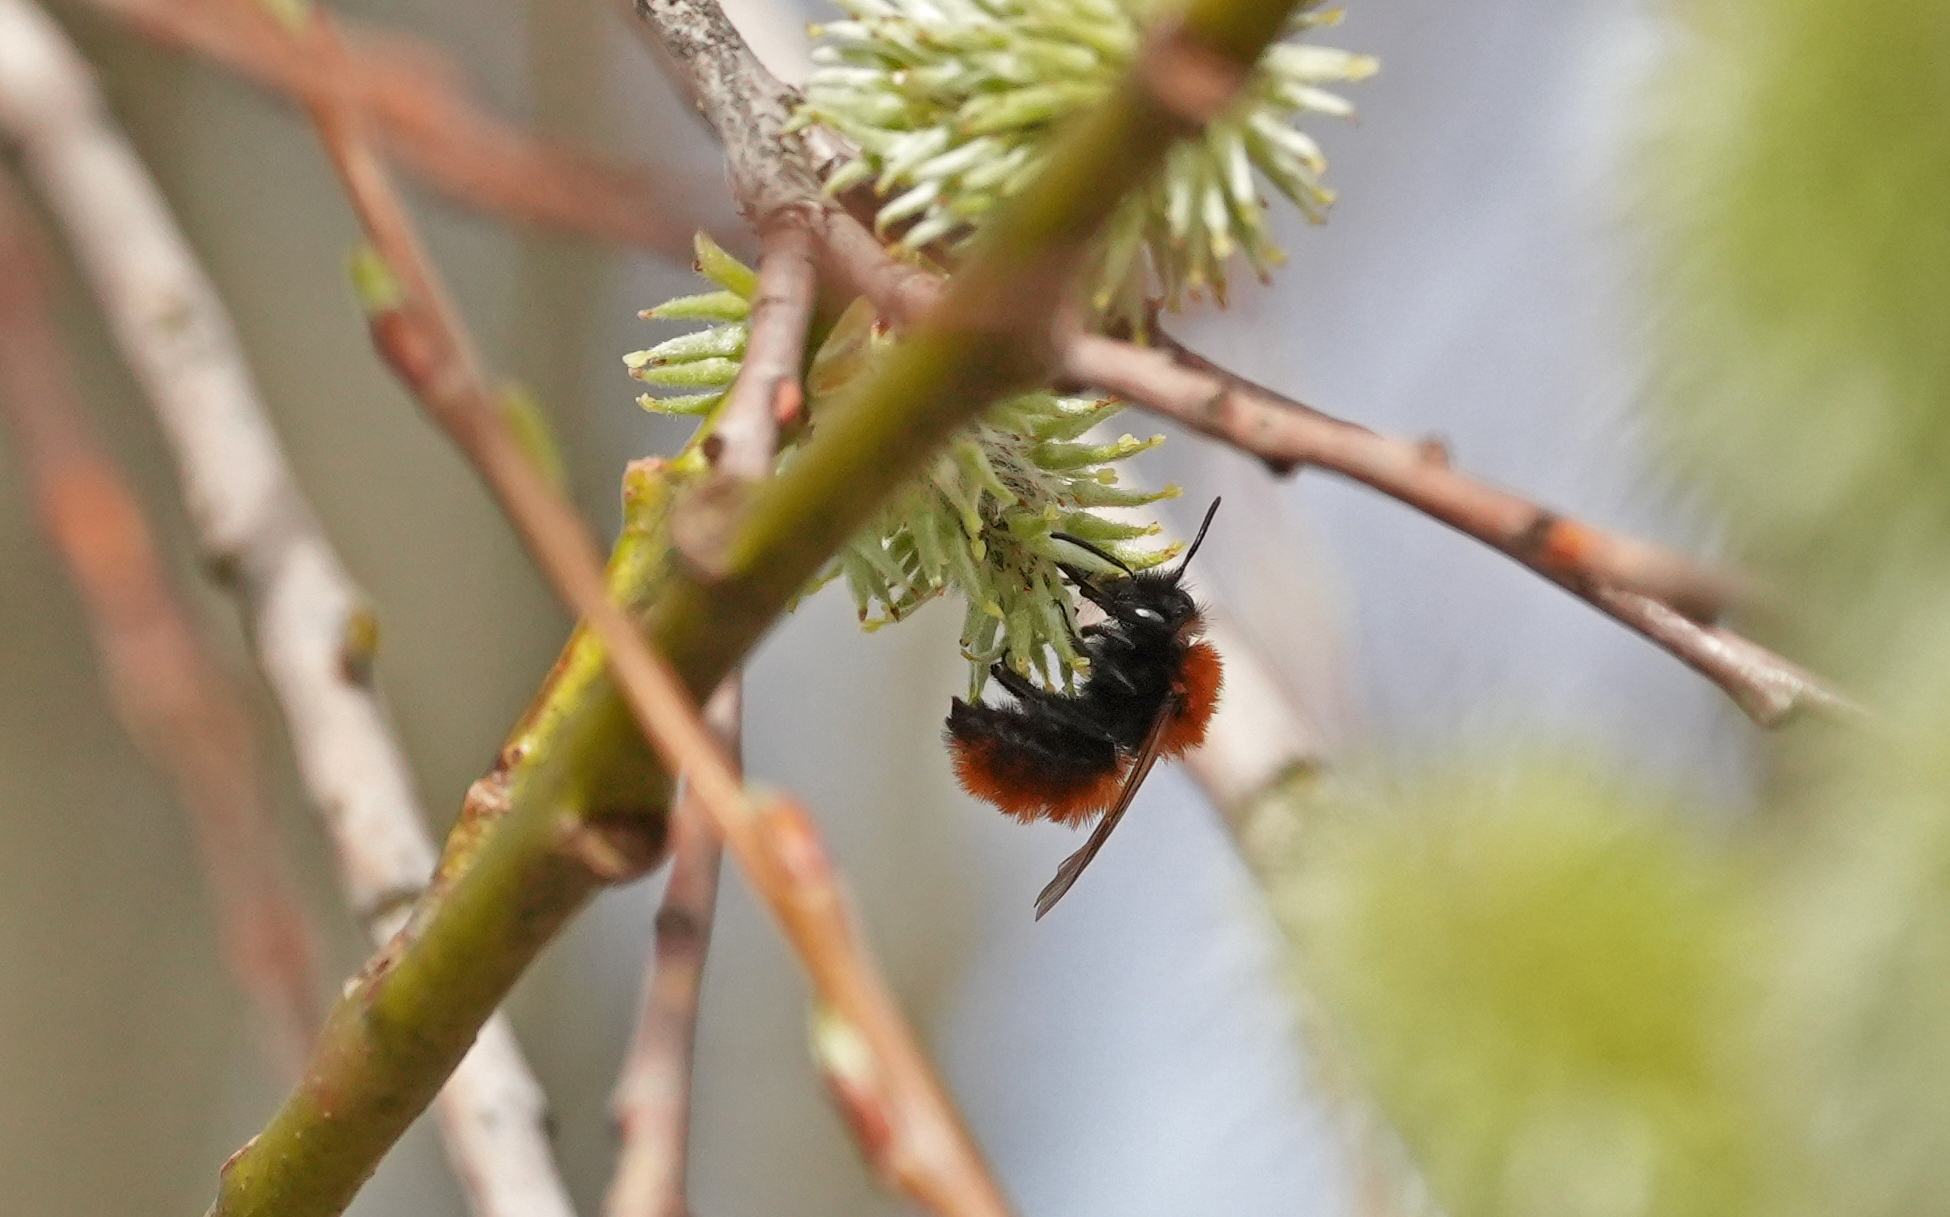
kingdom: Animalia
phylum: Arthropoda
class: Insecta
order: Hymenoptera
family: Andrenidae
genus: Andrena
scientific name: Andrena fulva
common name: Tawny mining bee
